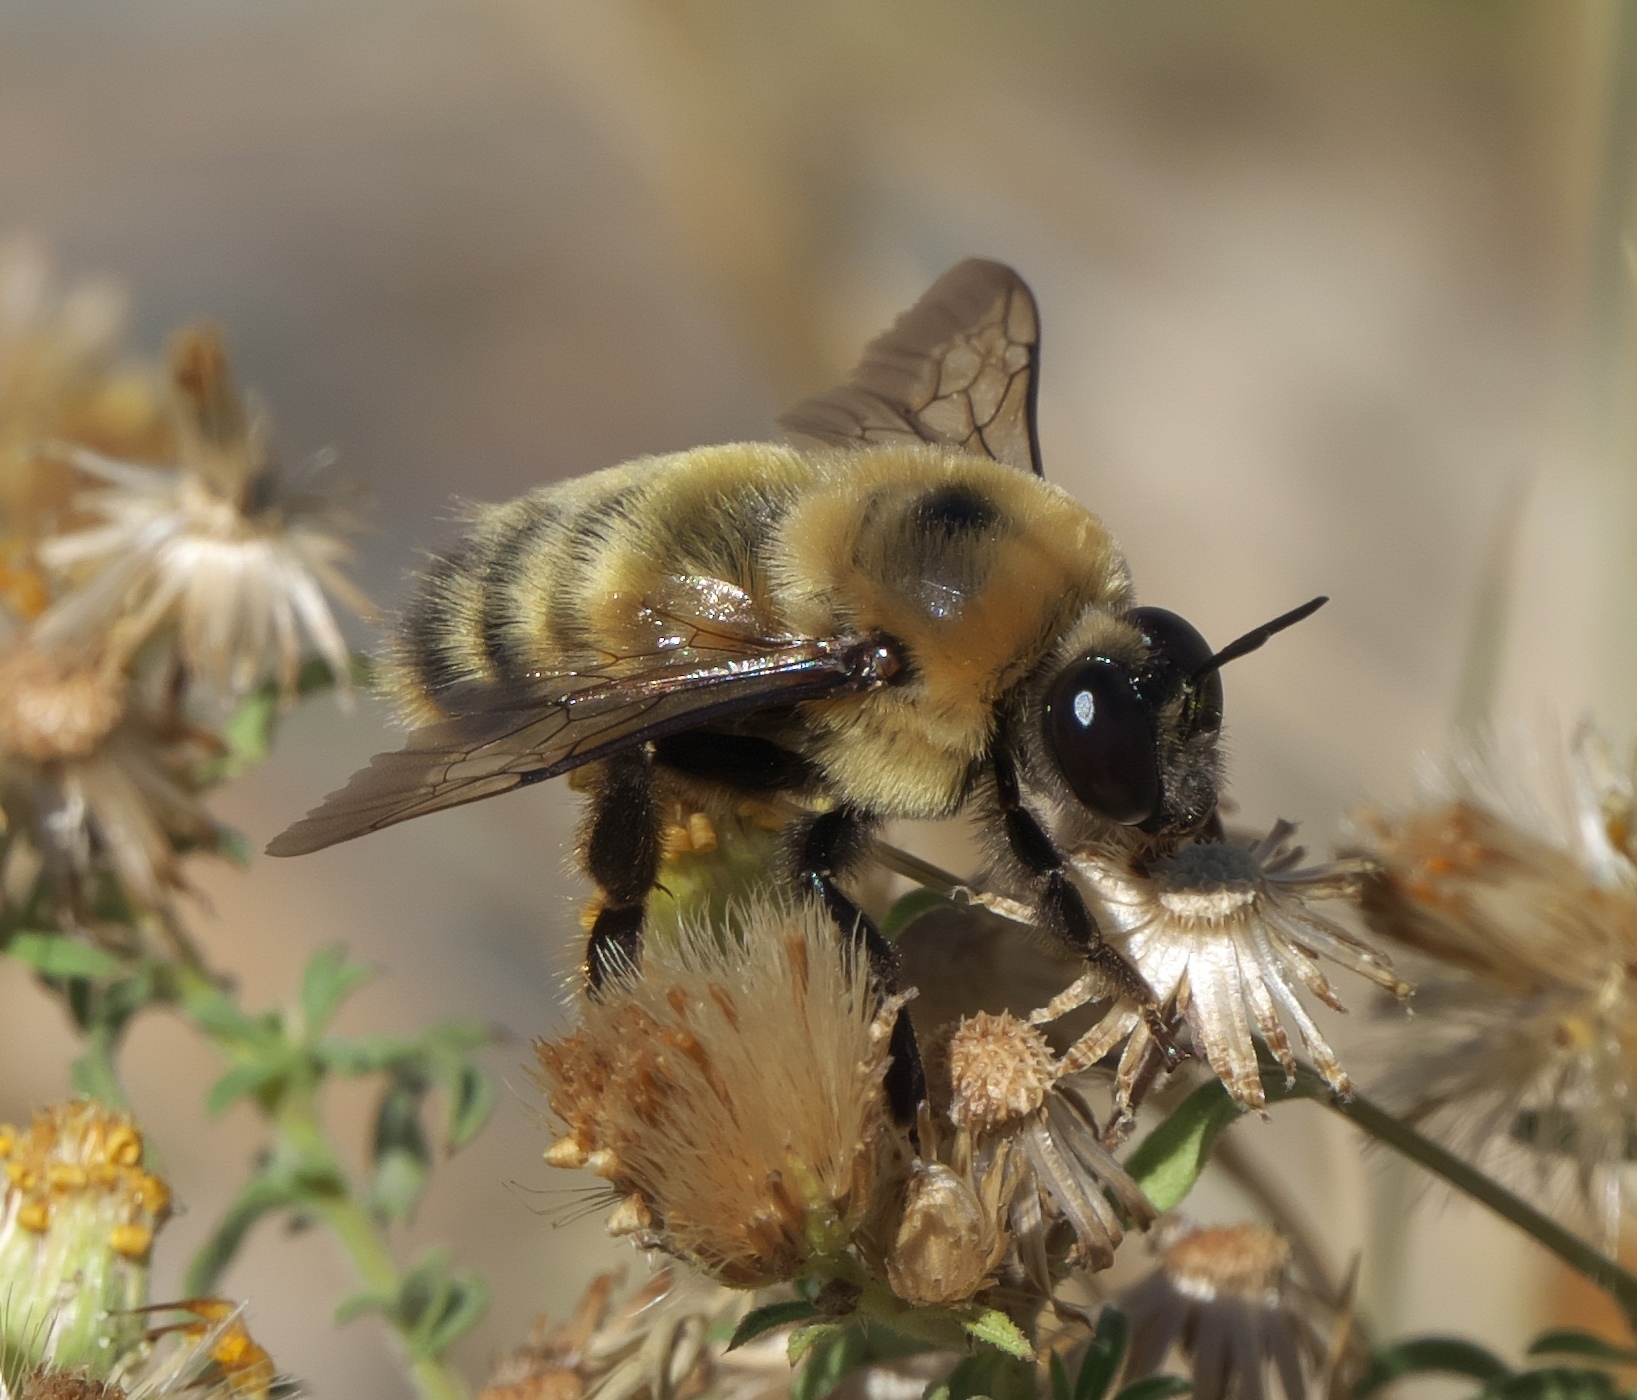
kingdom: Animalia
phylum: Arthropoda
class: Insecta
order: Hymenoptera
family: Apidae
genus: Bombus
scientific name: Bombus nevadensis
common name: Nevada bumble bee
